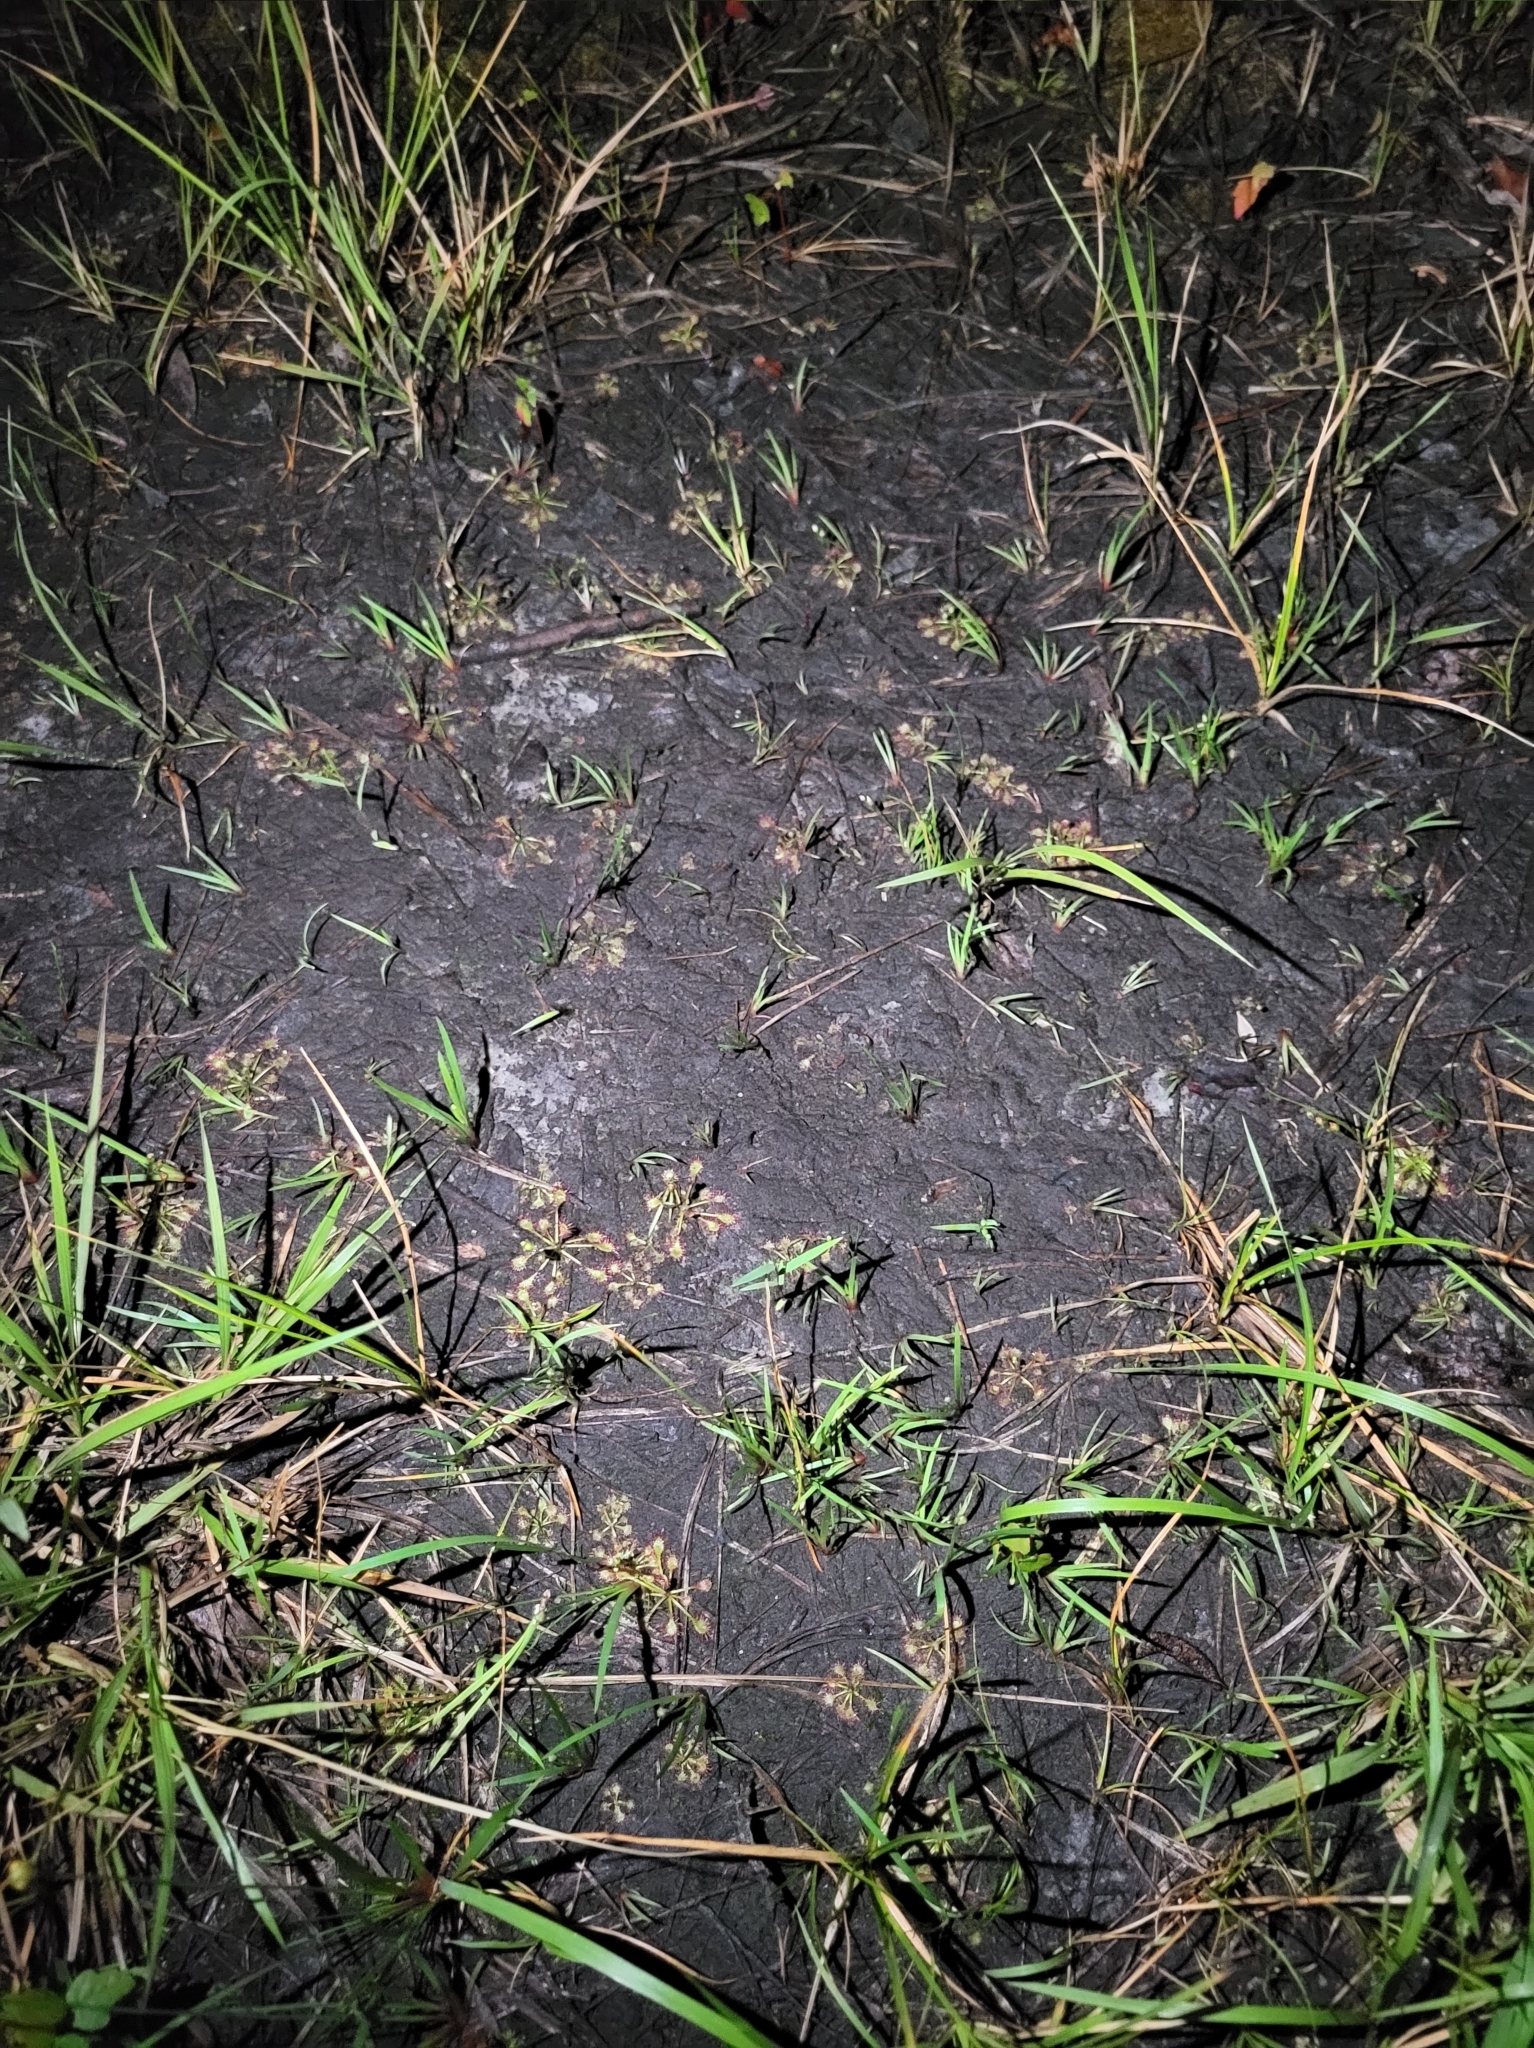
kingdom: Plantae
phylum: Tracheophyta
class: Magnoliopsida
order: Caryophyllales
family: Droseraceae
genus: Drosera
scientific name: Drosera intermedia
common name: Oblong-leaved sundew
